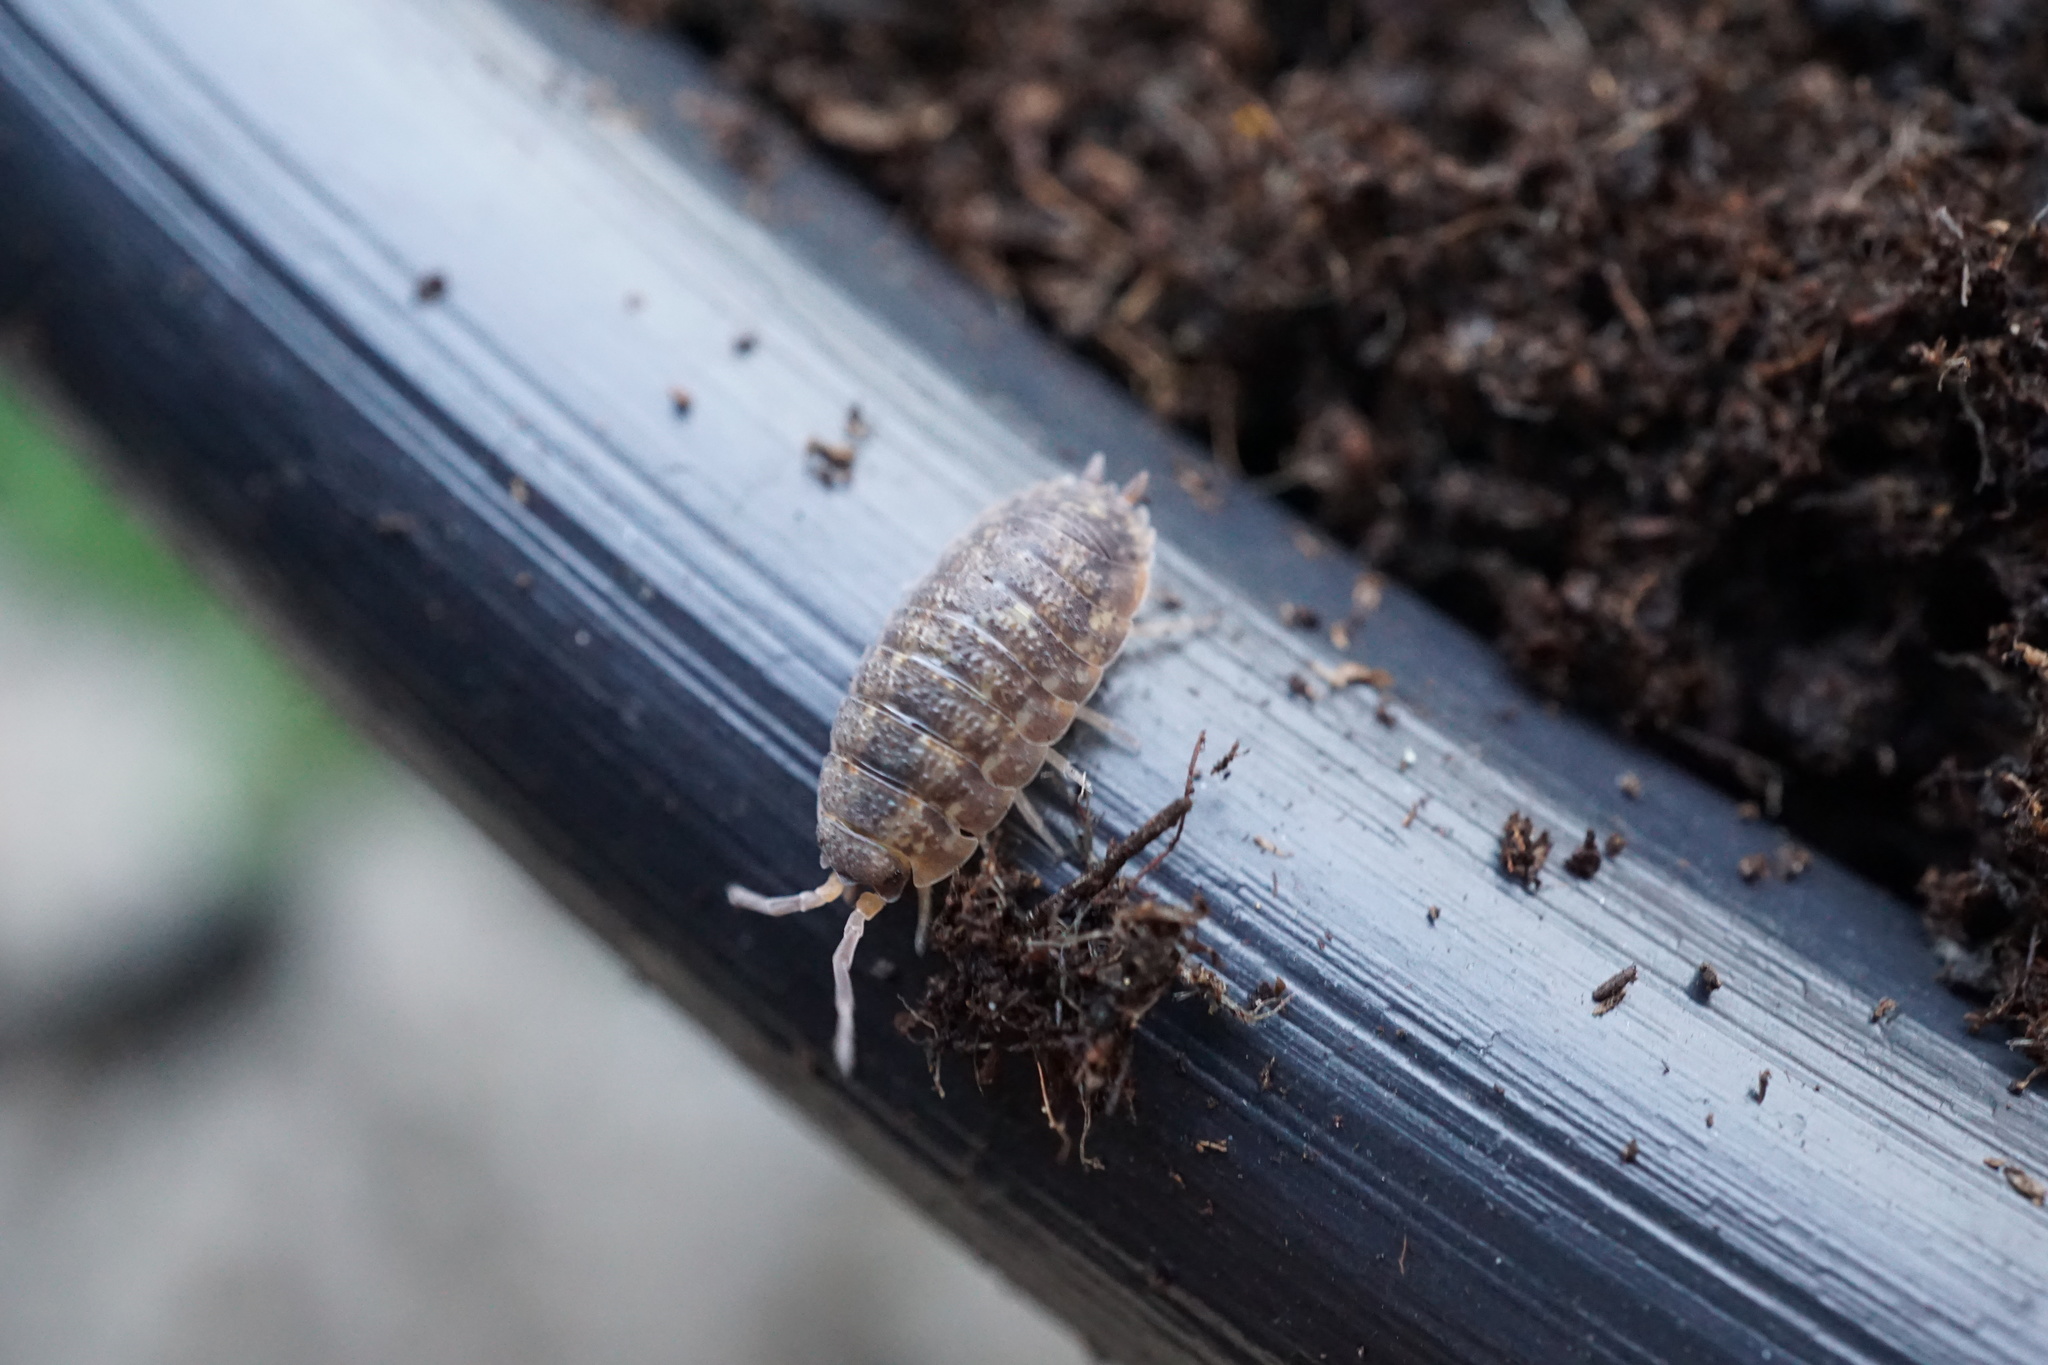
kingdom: Animalia
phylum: Arthropoda
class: Malacostraca
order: Isopoda
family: Porcellionidae
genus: Porcellio
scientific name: Porcellio scaber
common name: Common rough woodlouse
